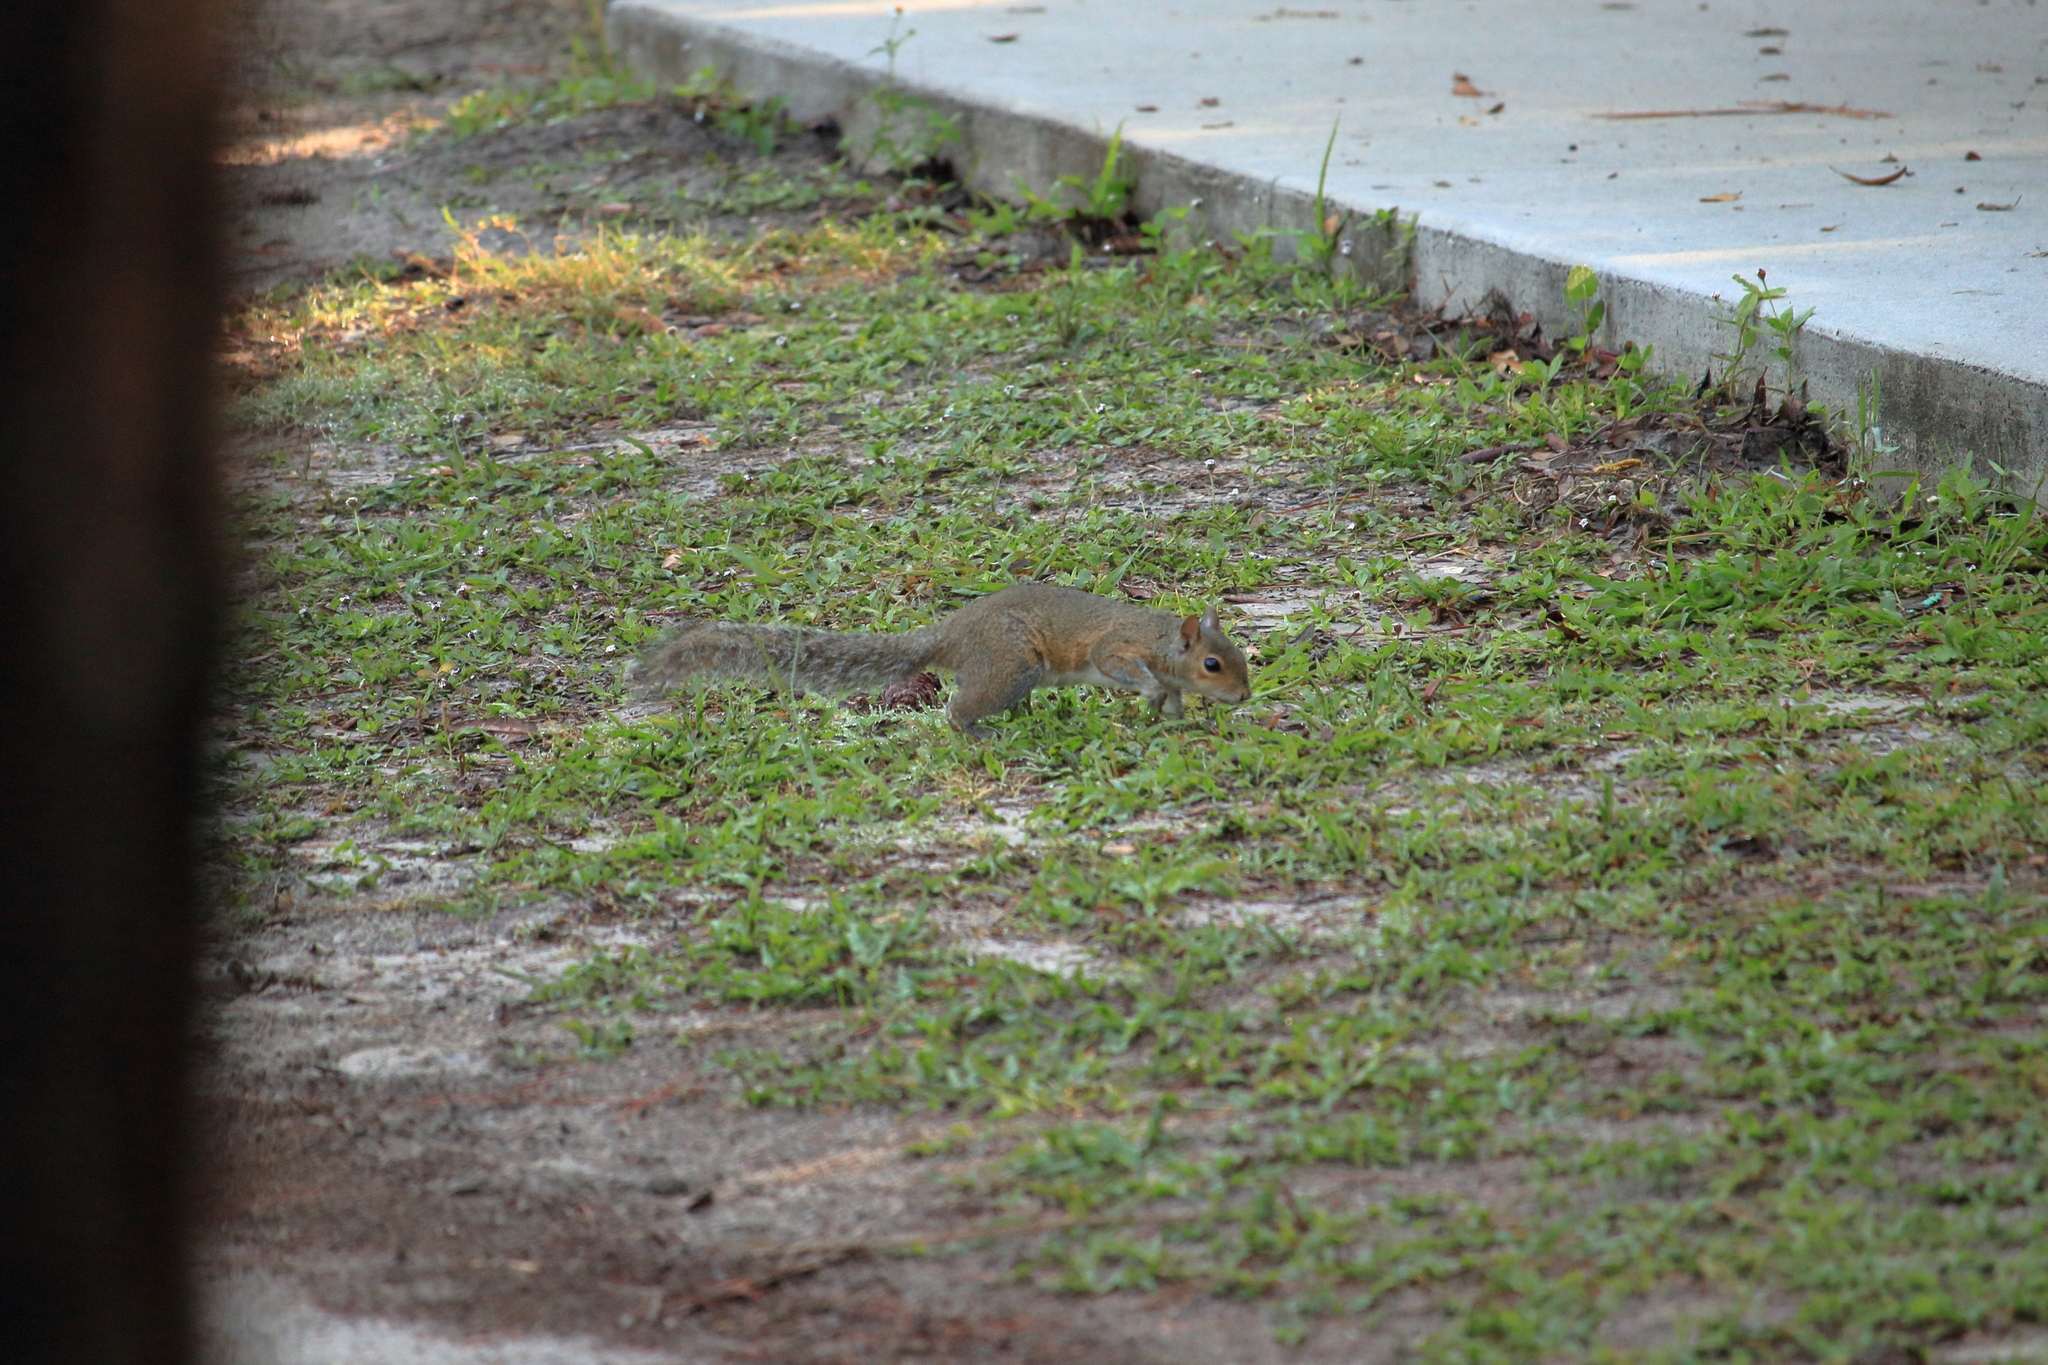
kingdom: Animalia
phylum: Chordata
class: Mammalia
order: Rodentia
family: Sciuridae
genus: Sciurus
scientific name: Sciurus carolinensis
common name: Eastern gray squirrel
